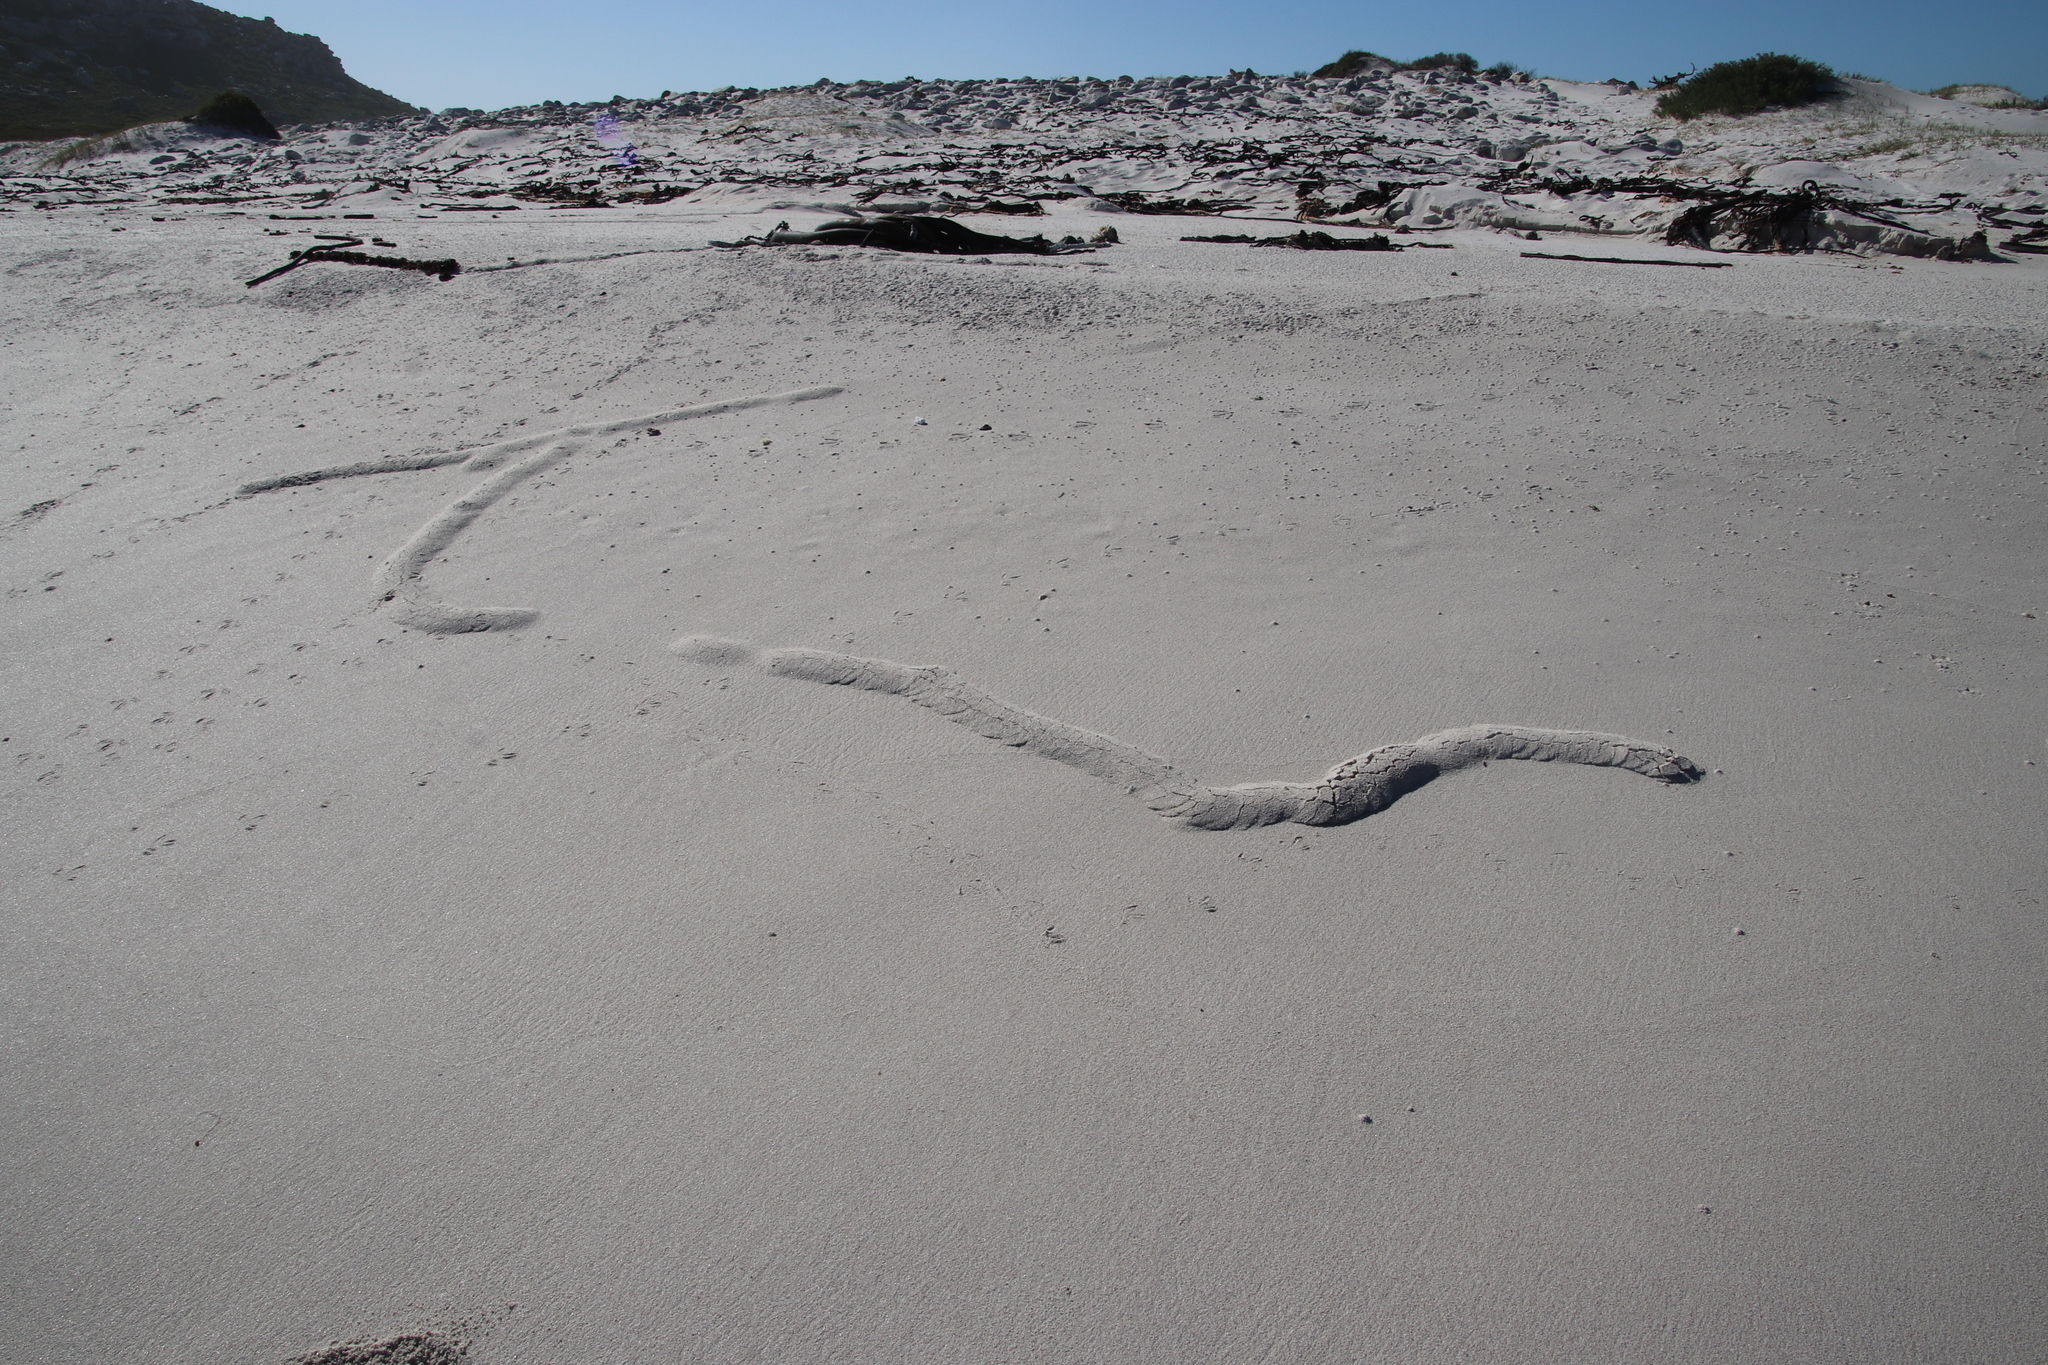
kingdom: Animalia
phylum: Chordata
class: Mammalia
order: Afrosoricida
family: Chrysochloridae
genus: Chrysochloris
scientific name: Chrysochloris asiatica
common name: Cape golden mole
